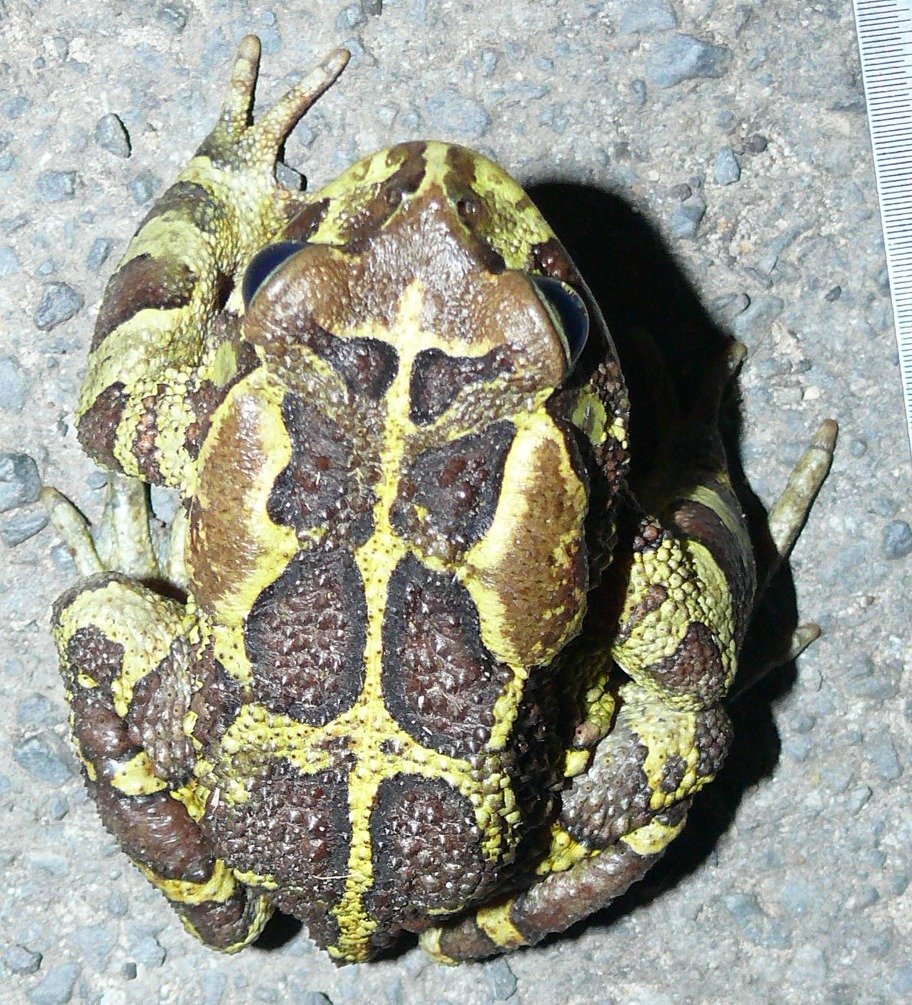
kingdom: Animalia
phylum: Chordata
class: Amphibia
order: Anura
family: Bufonidae
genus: Sclerophrys
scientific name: Sclerophrys pantherina
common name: Panther toad
